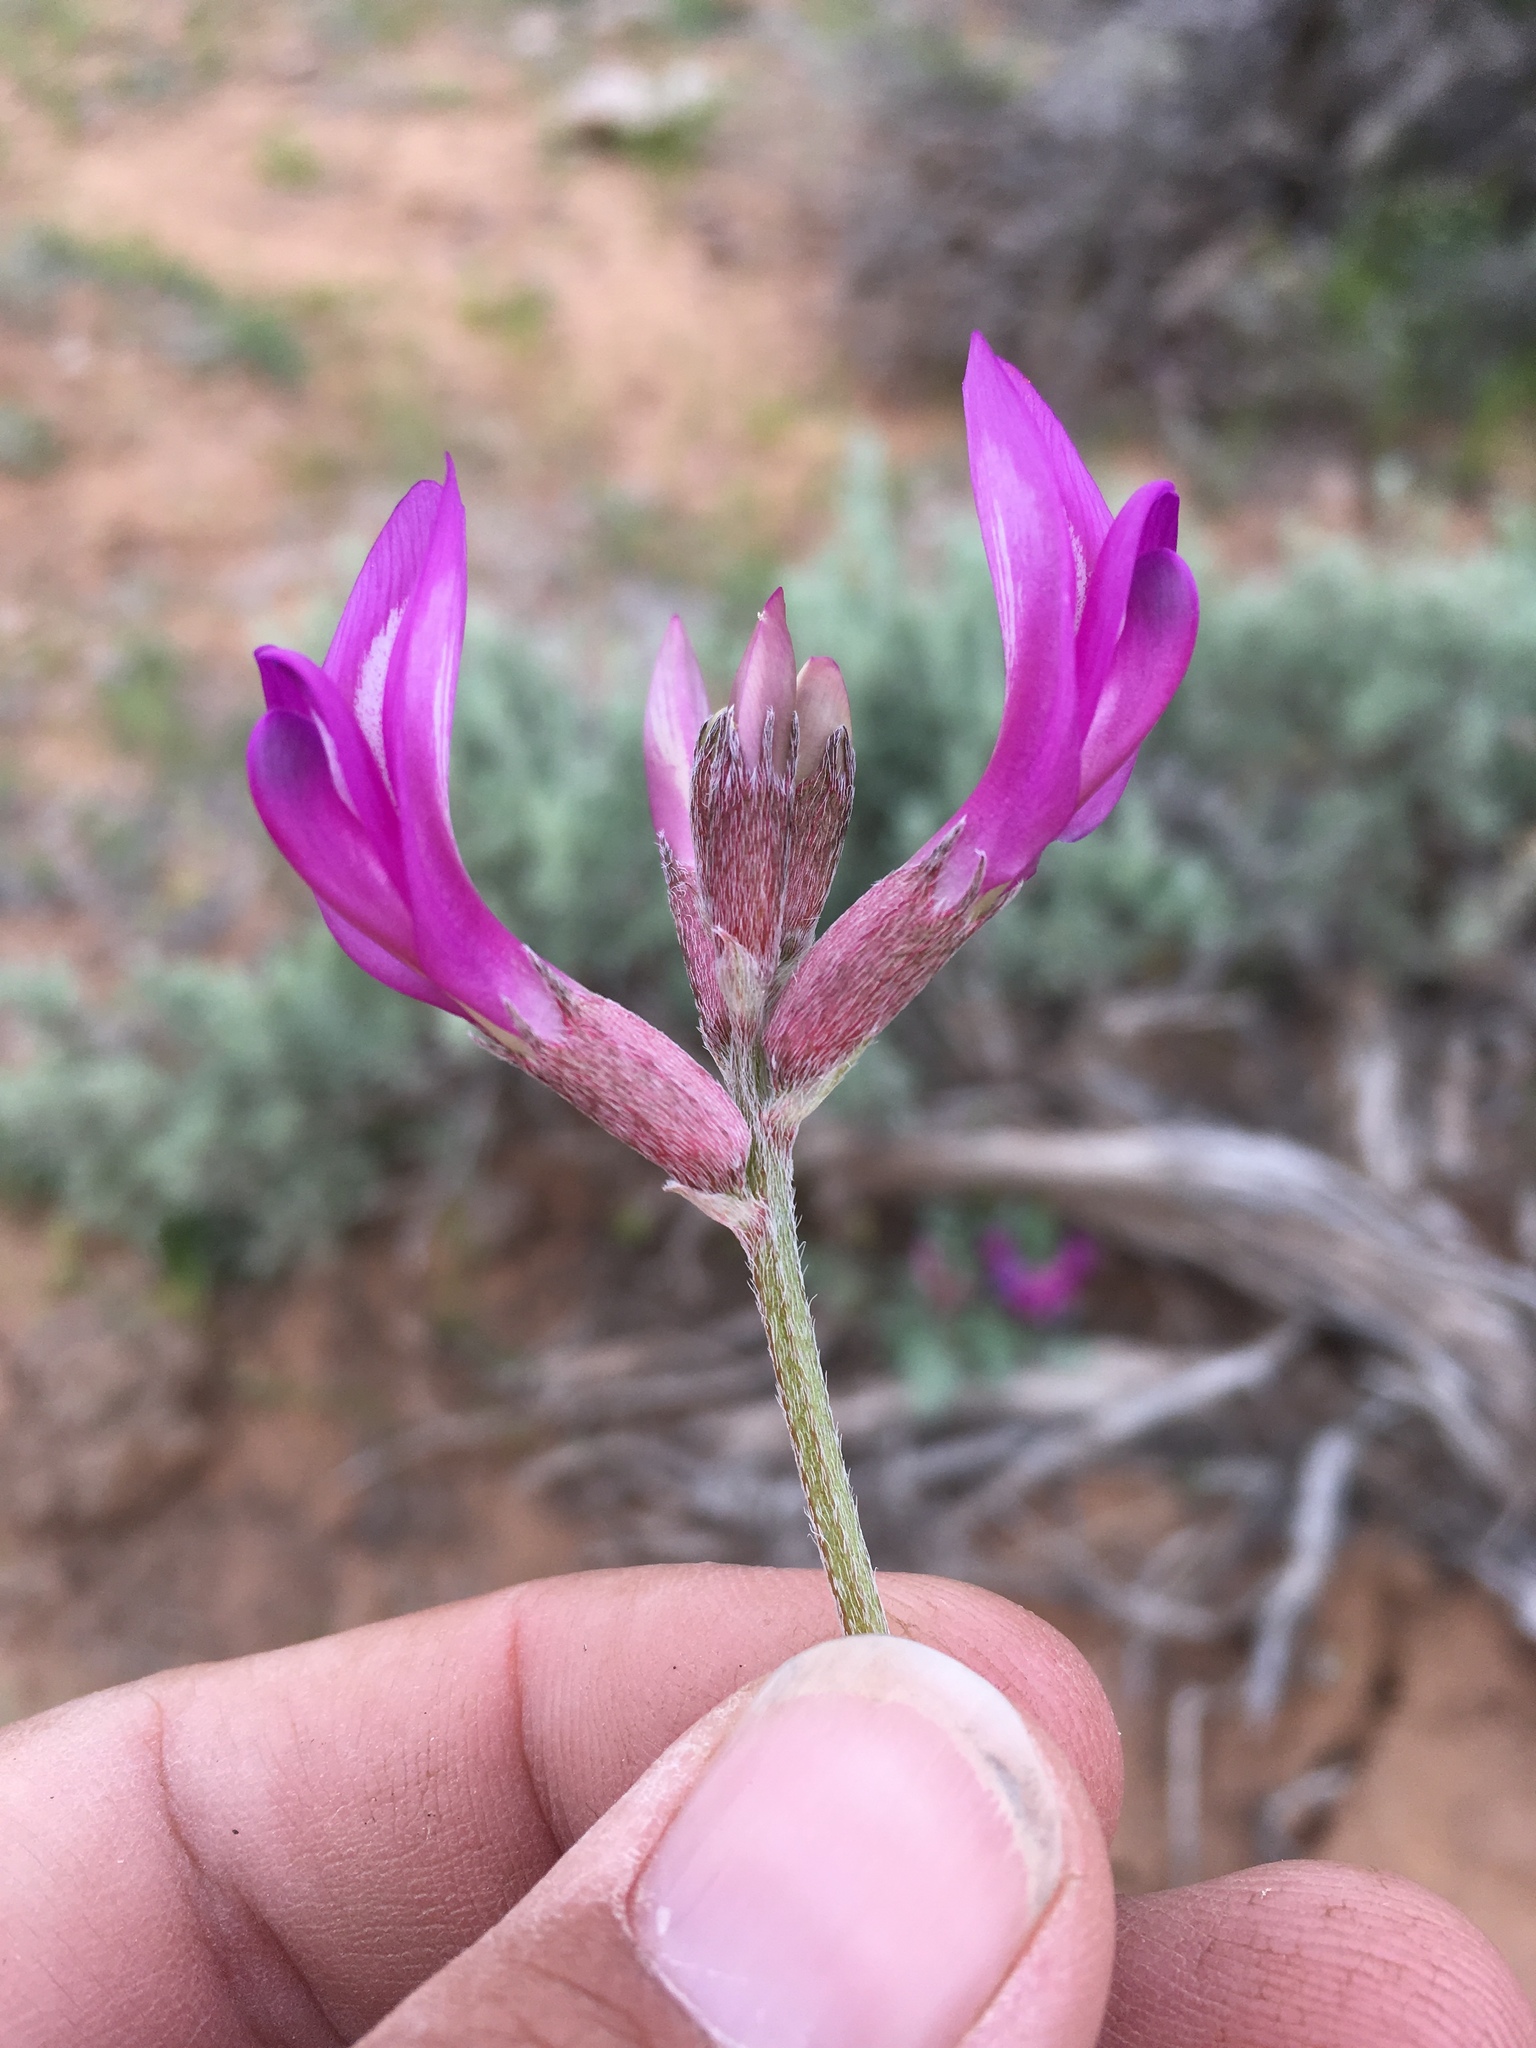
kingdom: Plantae
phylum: Tracheophyta
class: Magnoliopsida
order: Fabales
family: Fabaceae
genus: Astragalus
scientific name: Astragalus amphioxys
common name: Crescent milk-vetch
